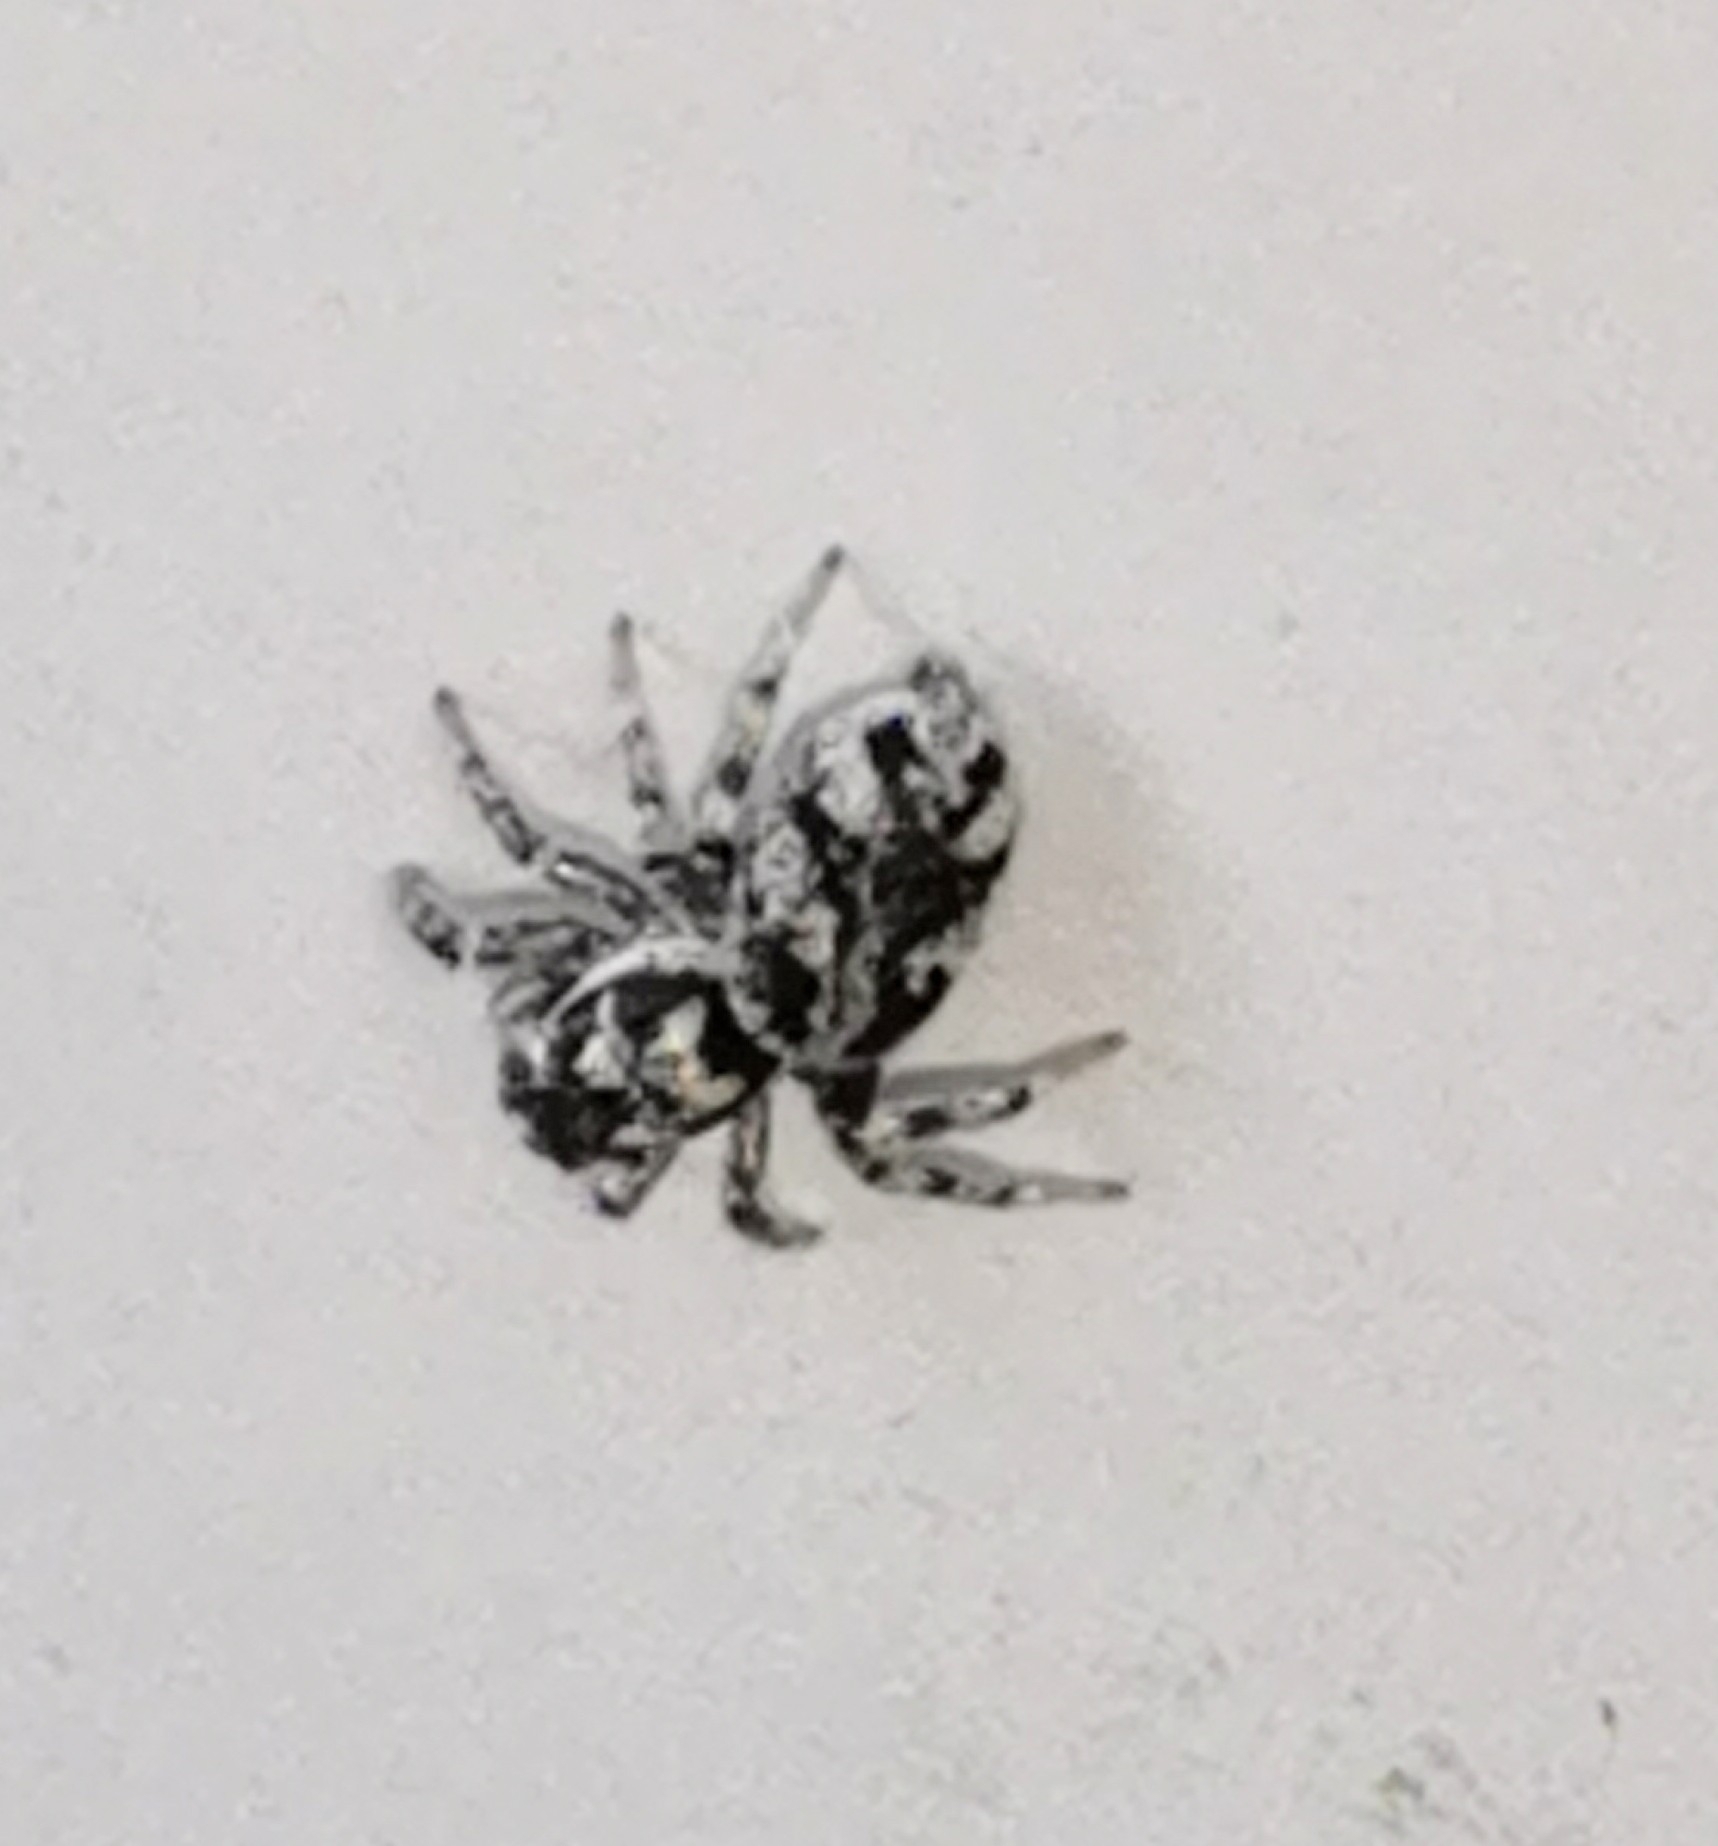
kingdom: Animalia
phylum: Arthropoda
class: Arachnida
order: Araneae
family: Salticidae
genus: Salticus
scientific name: Salticus cingulatus
